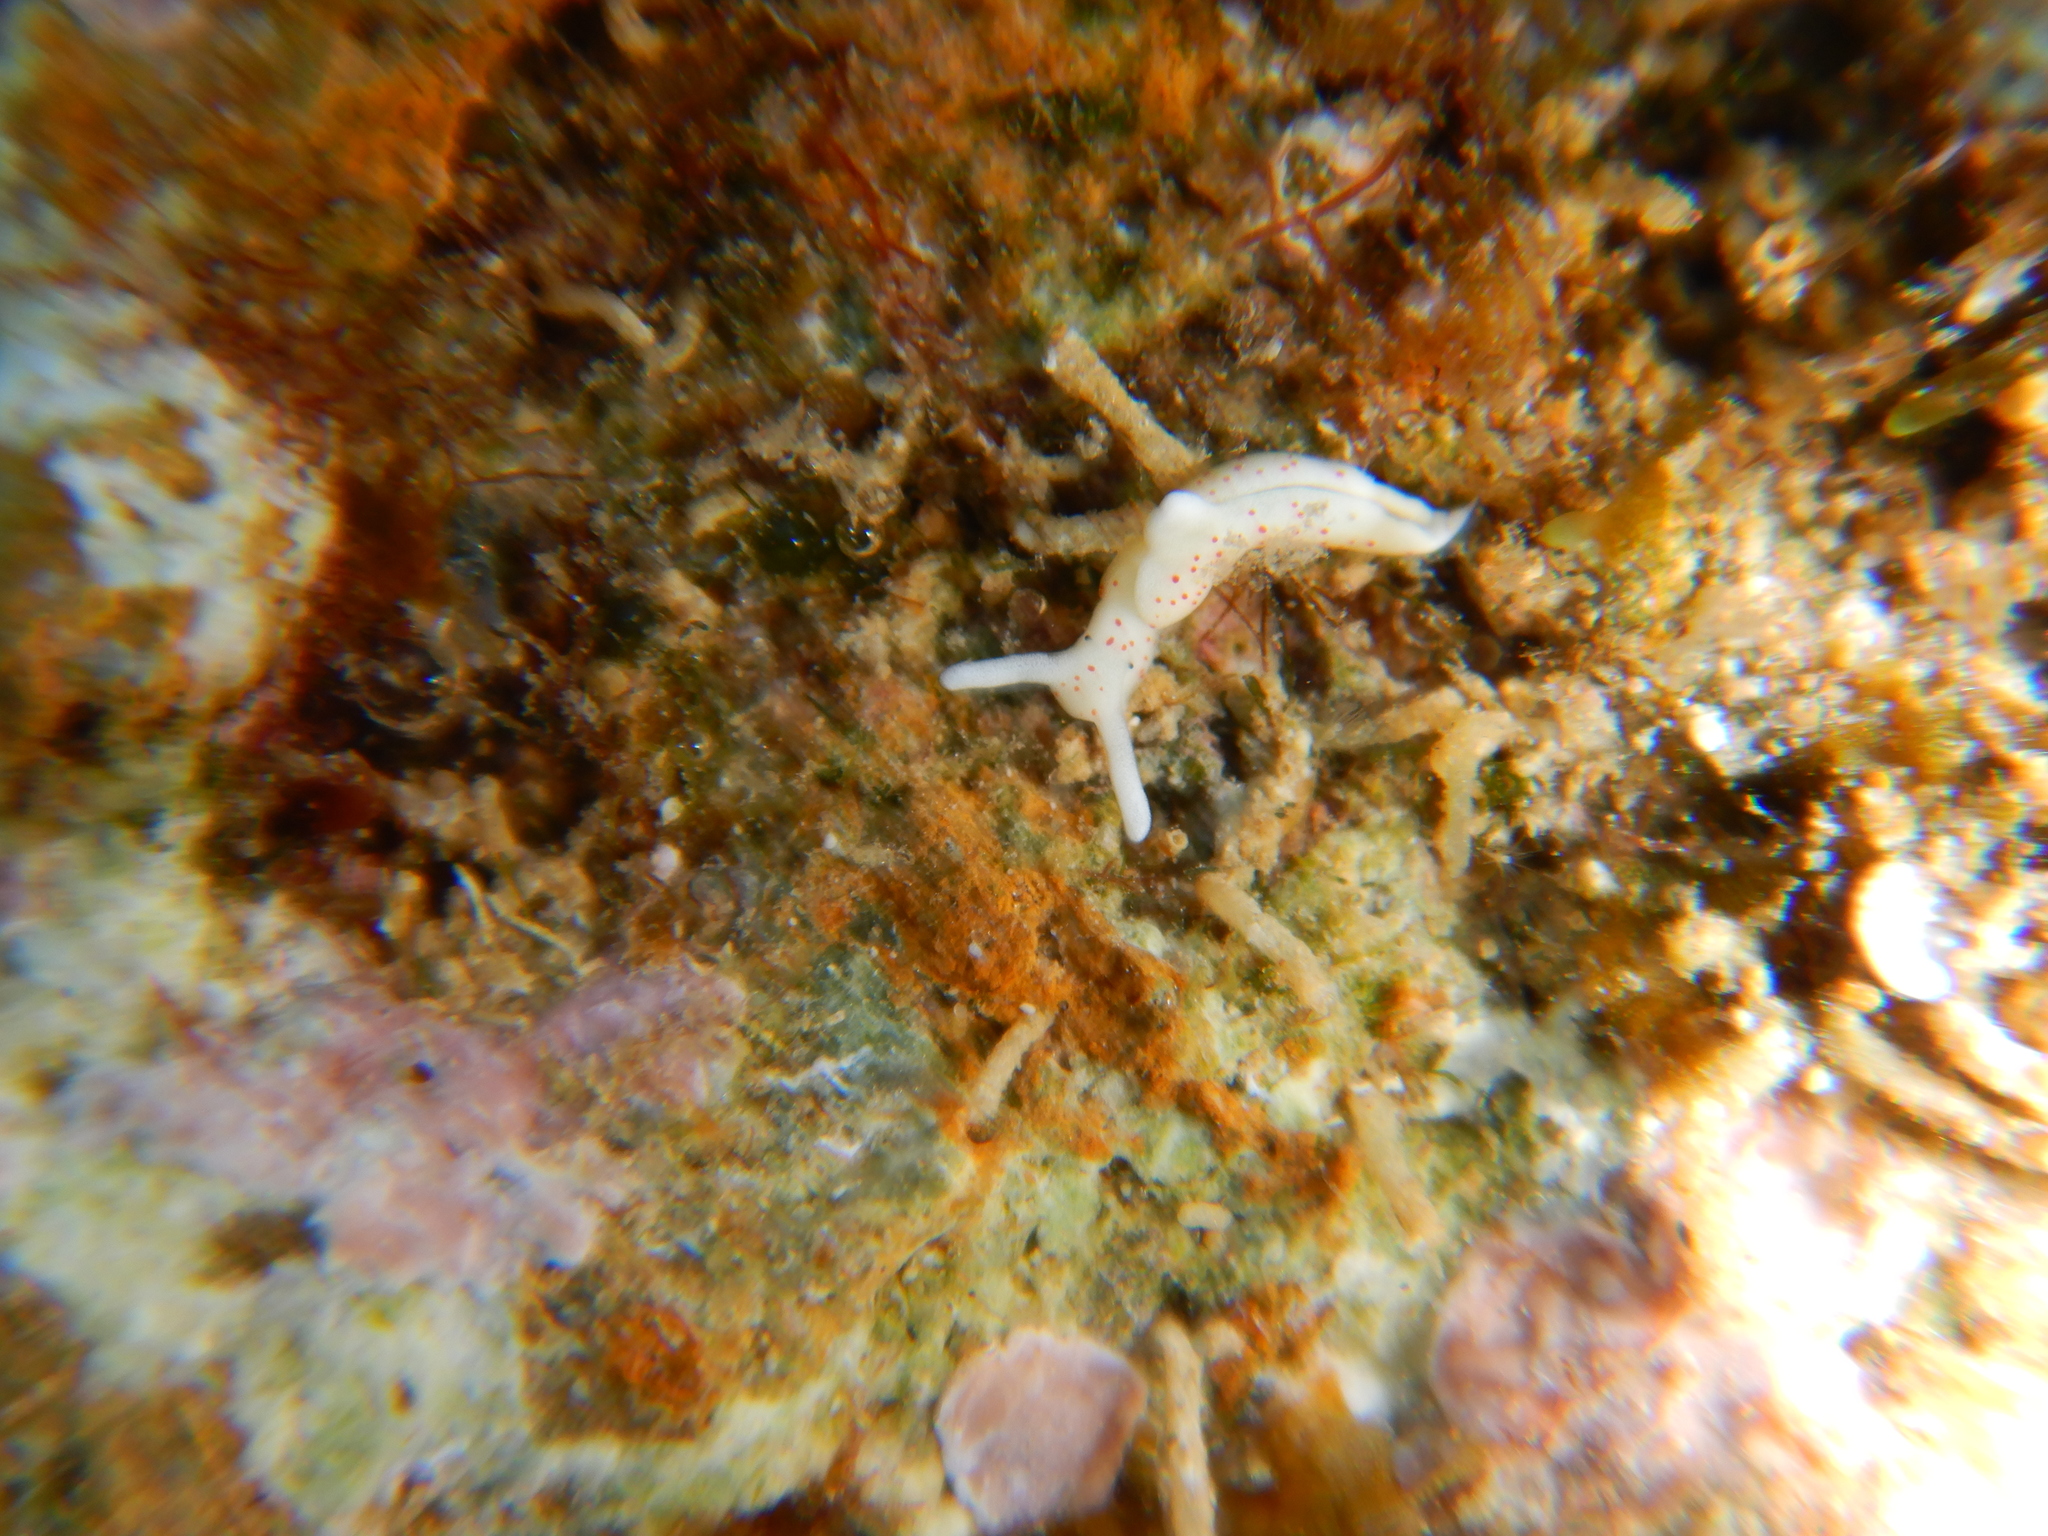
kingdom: Animalia
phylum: Mollusca
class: Gastropoda
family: Plakobranchidae
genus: Elysia
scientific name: Elysia timida
